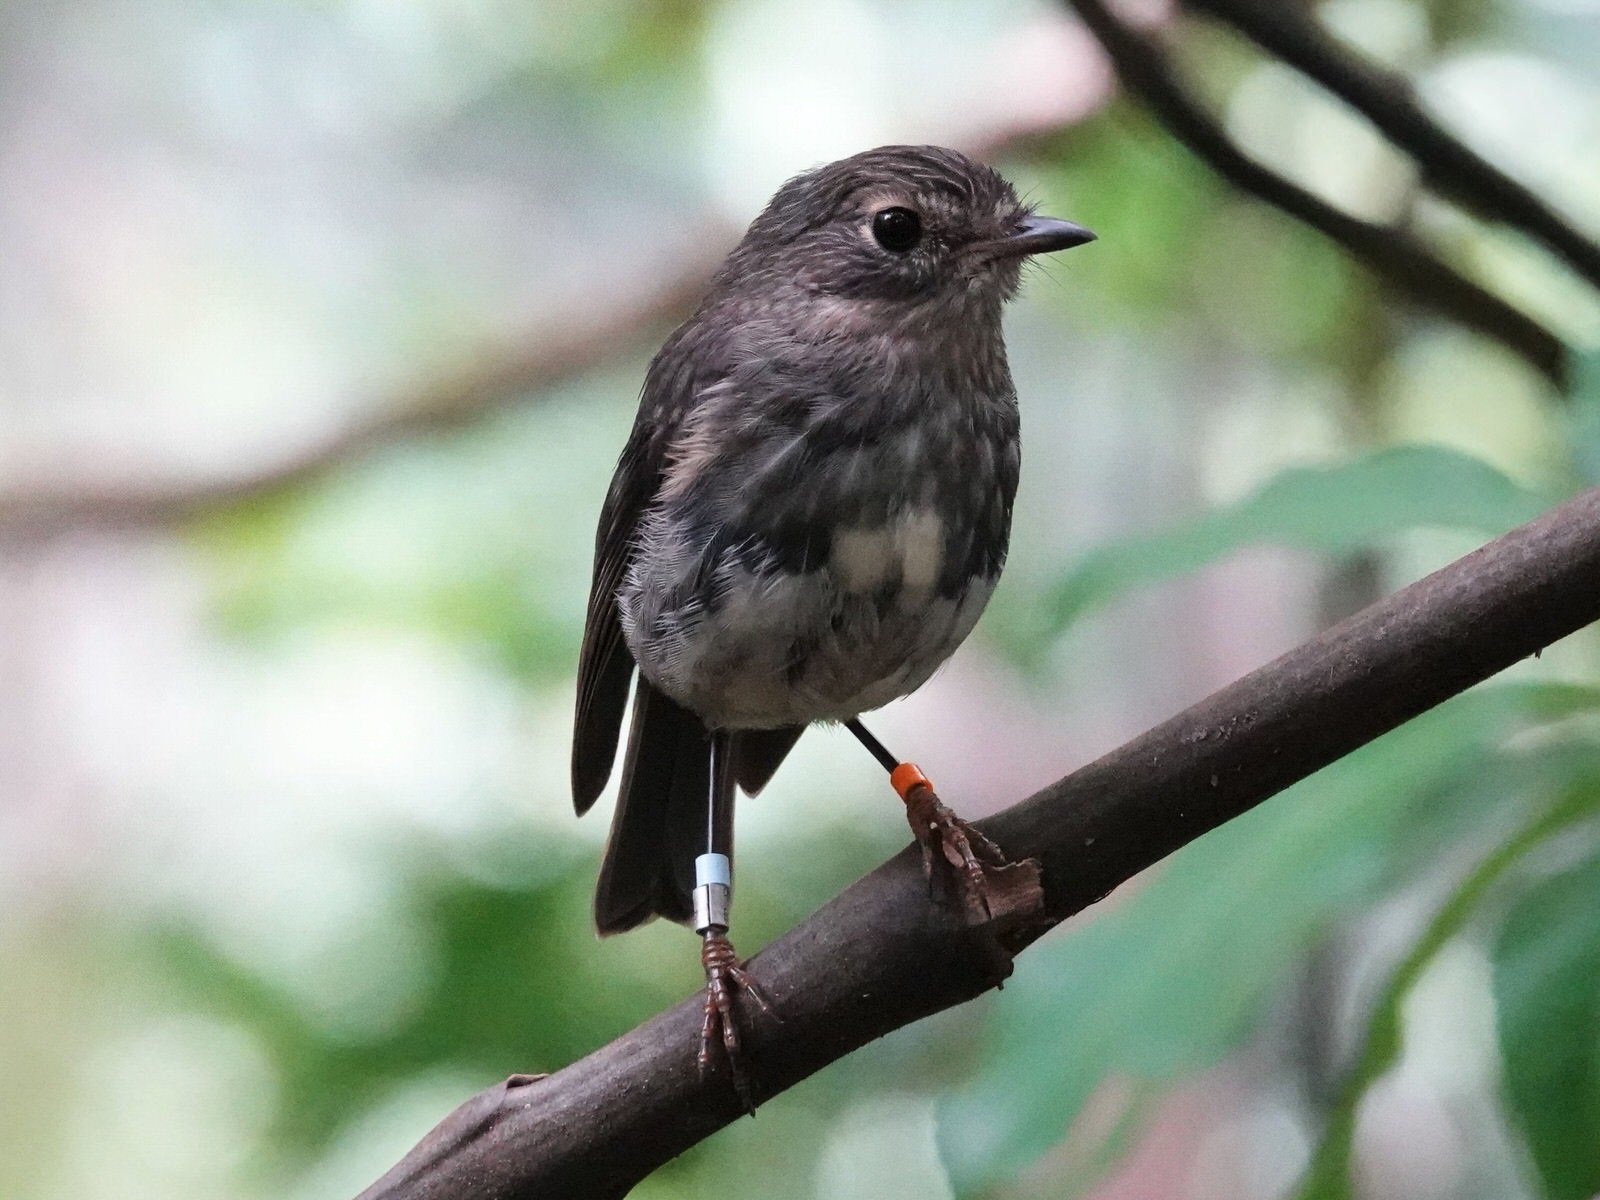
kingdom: Animalia
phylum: Chordata
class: Aves
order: Passeriformes
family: Petroicidae
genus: Petroica
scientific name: Petroica australis
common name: New zealand robin
